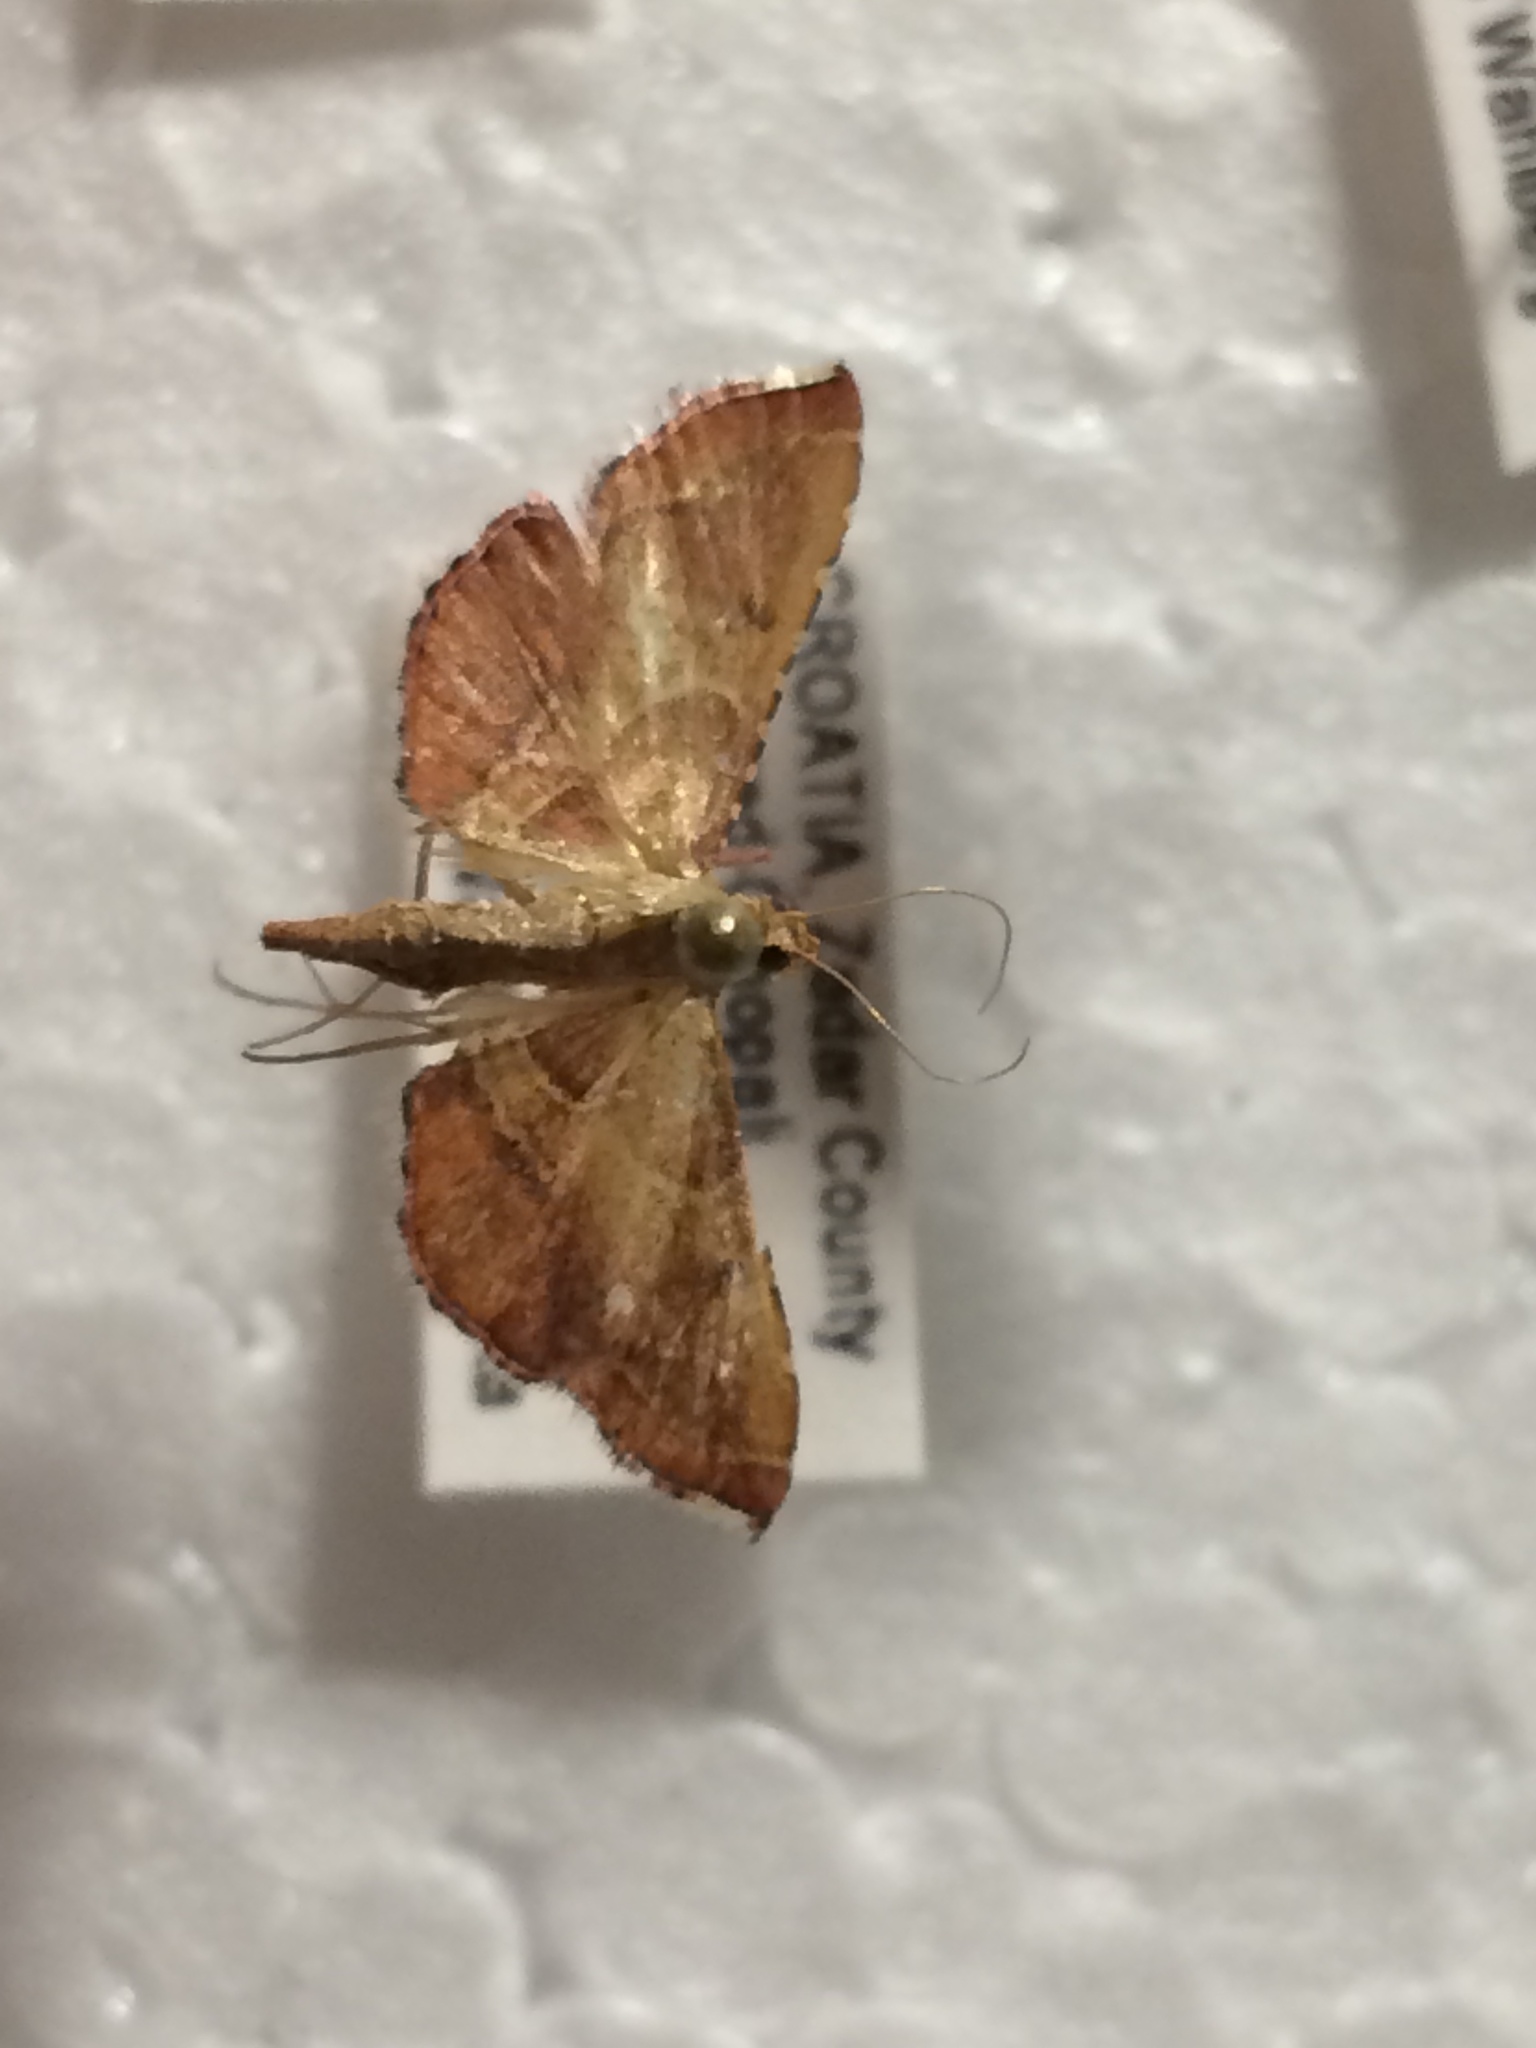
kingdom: Animalia
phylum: Arthropoda
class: Insecta
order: Lepidoptera
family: Pyralidae
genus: Endotricha
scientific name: Endotricha flammealis
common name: Rosy tabby
